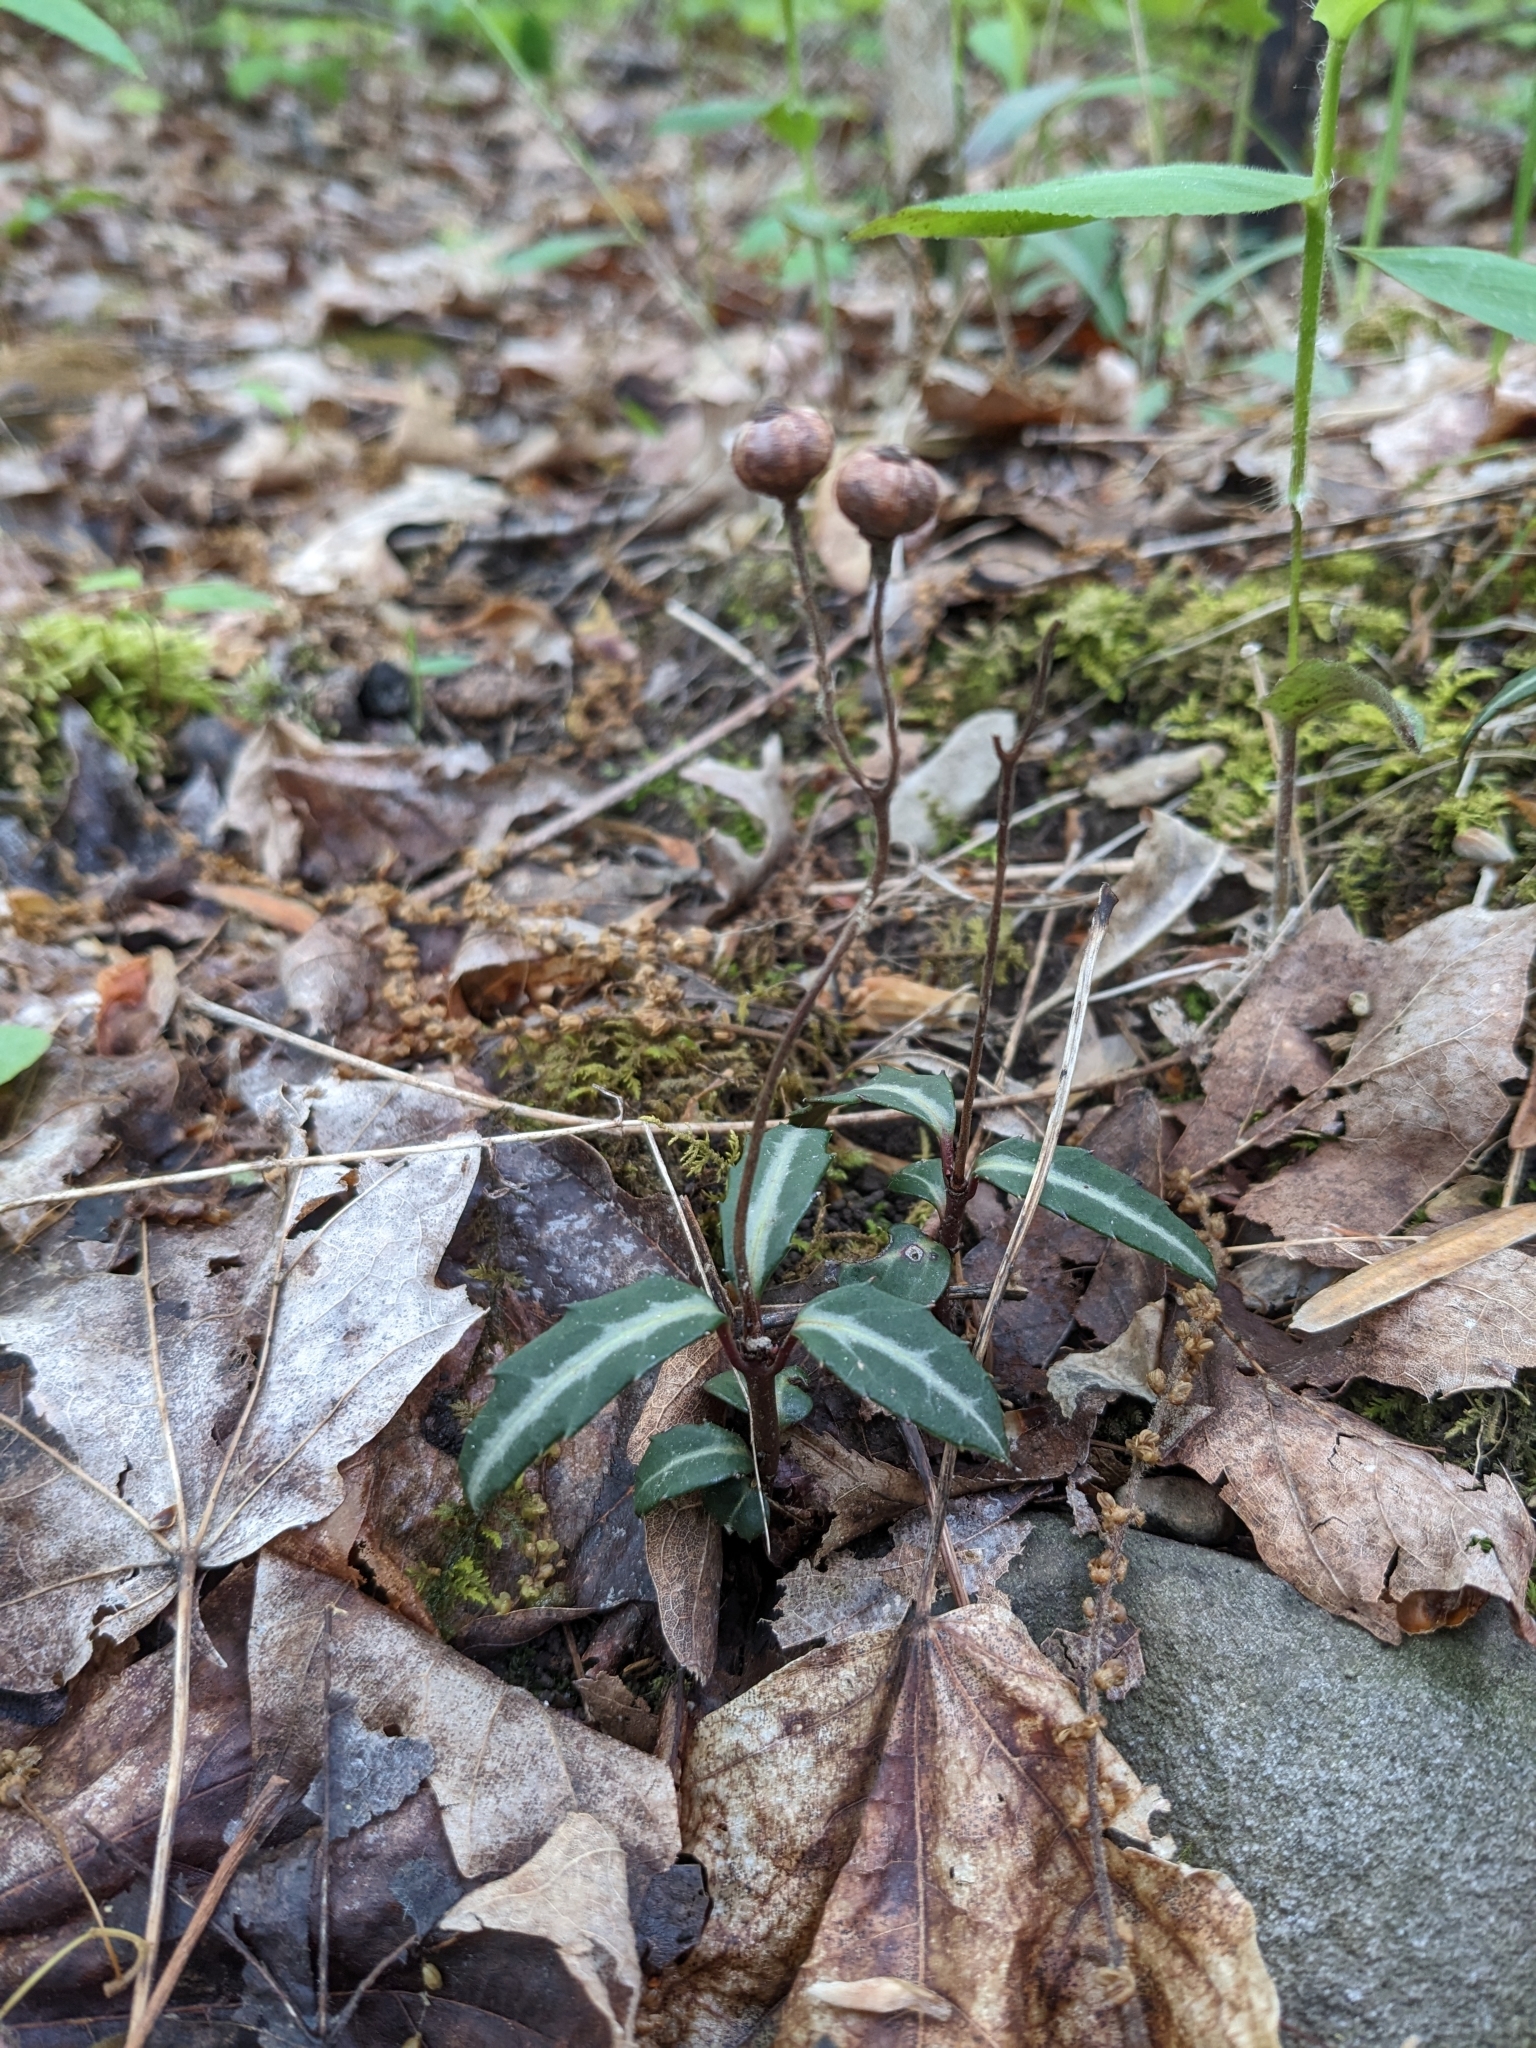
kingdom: Plantae
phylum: Tracheophyta
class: Magnoliopsida
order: Ericales
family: Ericaceae
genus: Chimaphila
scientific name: Chimaphila maculata
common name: Spotted pipsissewa
